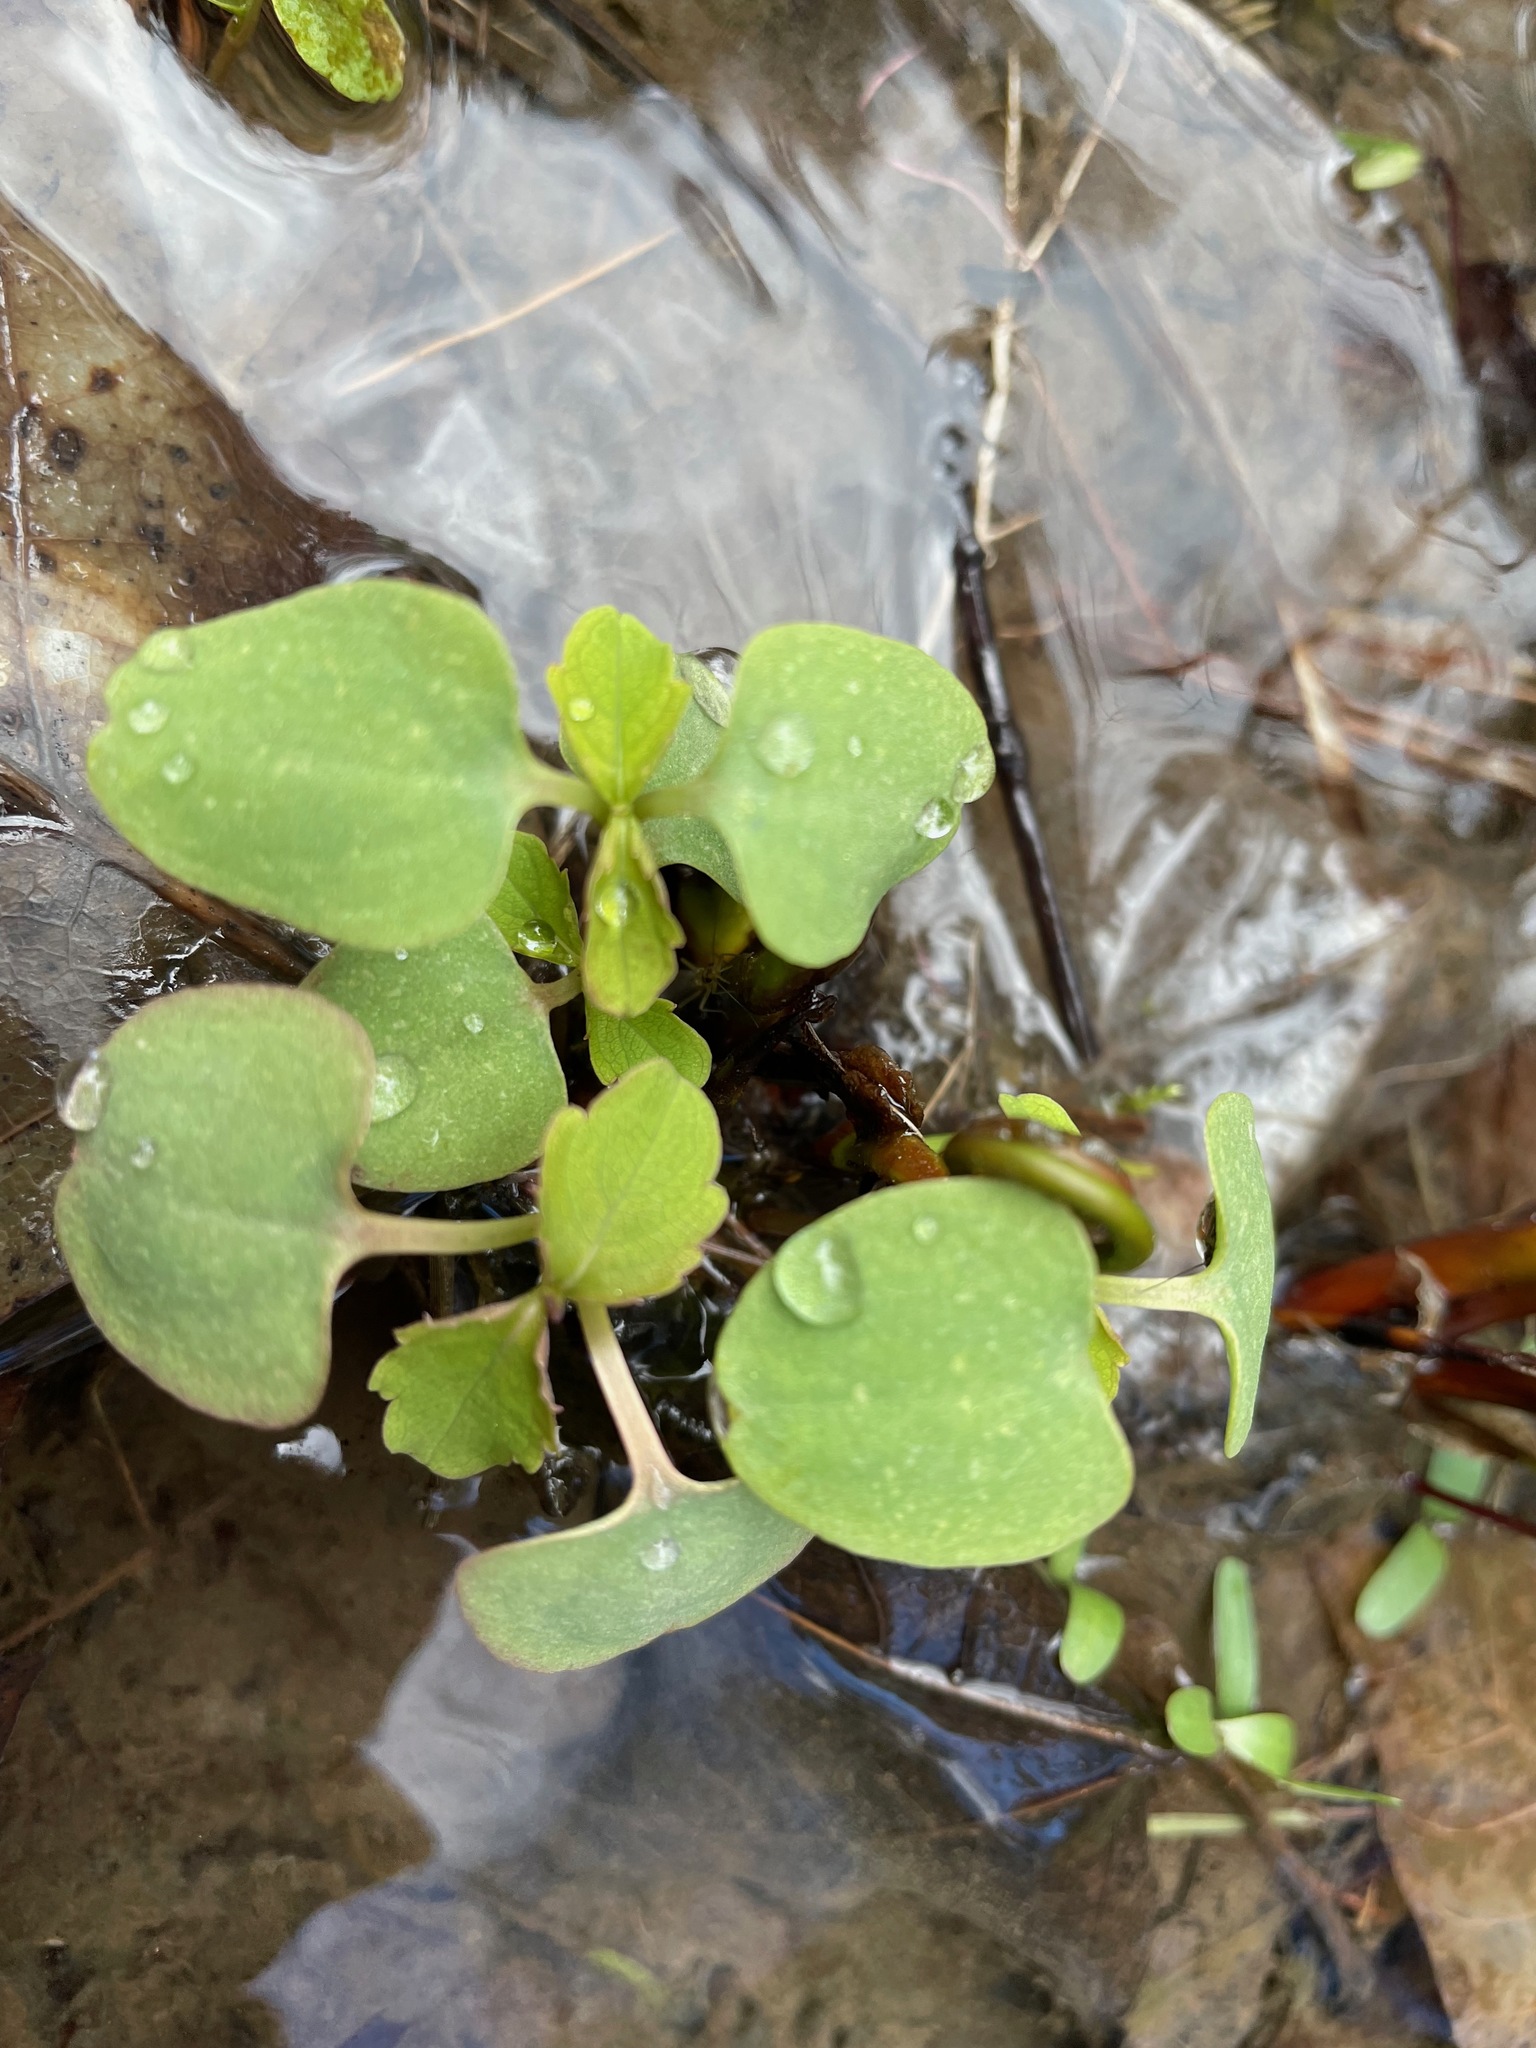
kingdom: Plantae
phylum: Tracheophyta
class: Magnoliopsida
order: Ericales
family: Balsaminaceae
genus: Impatiens
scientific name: Impatiens
